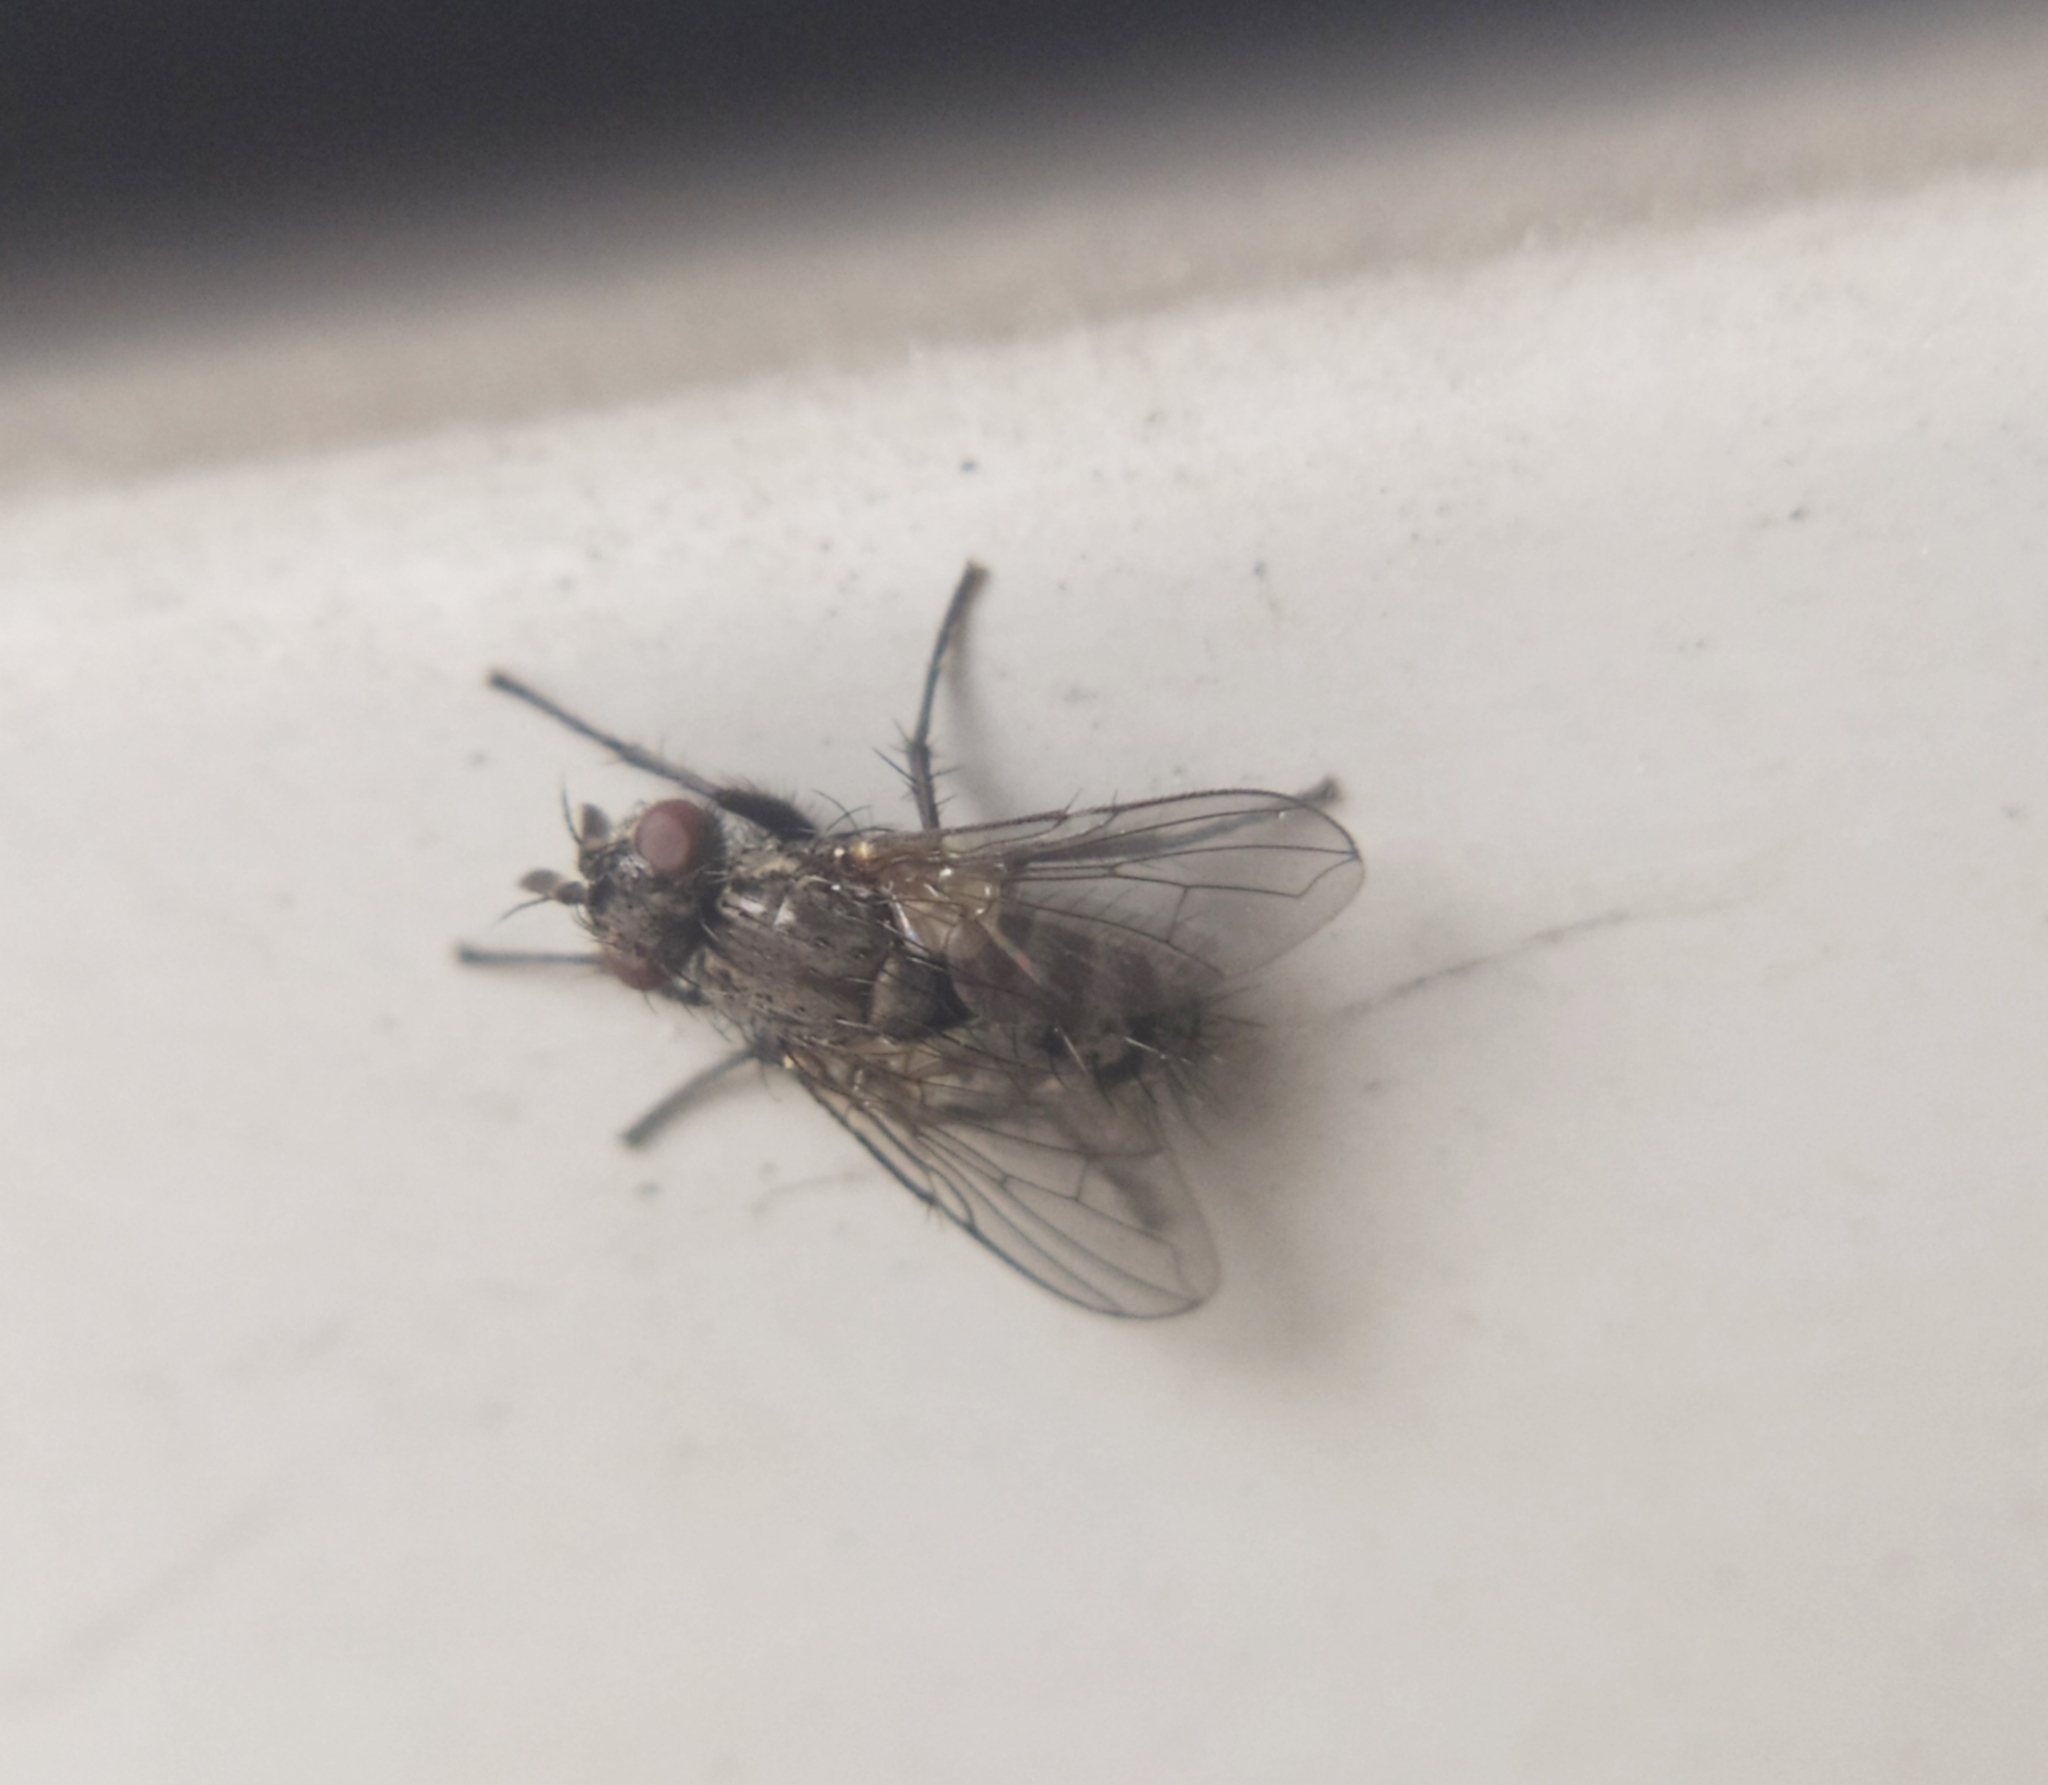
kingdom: Animalia
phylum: Arthropoda
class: Insecta
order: Diptera
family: Tachinidae
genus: Triarthria
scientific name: Triarthria setipennis
